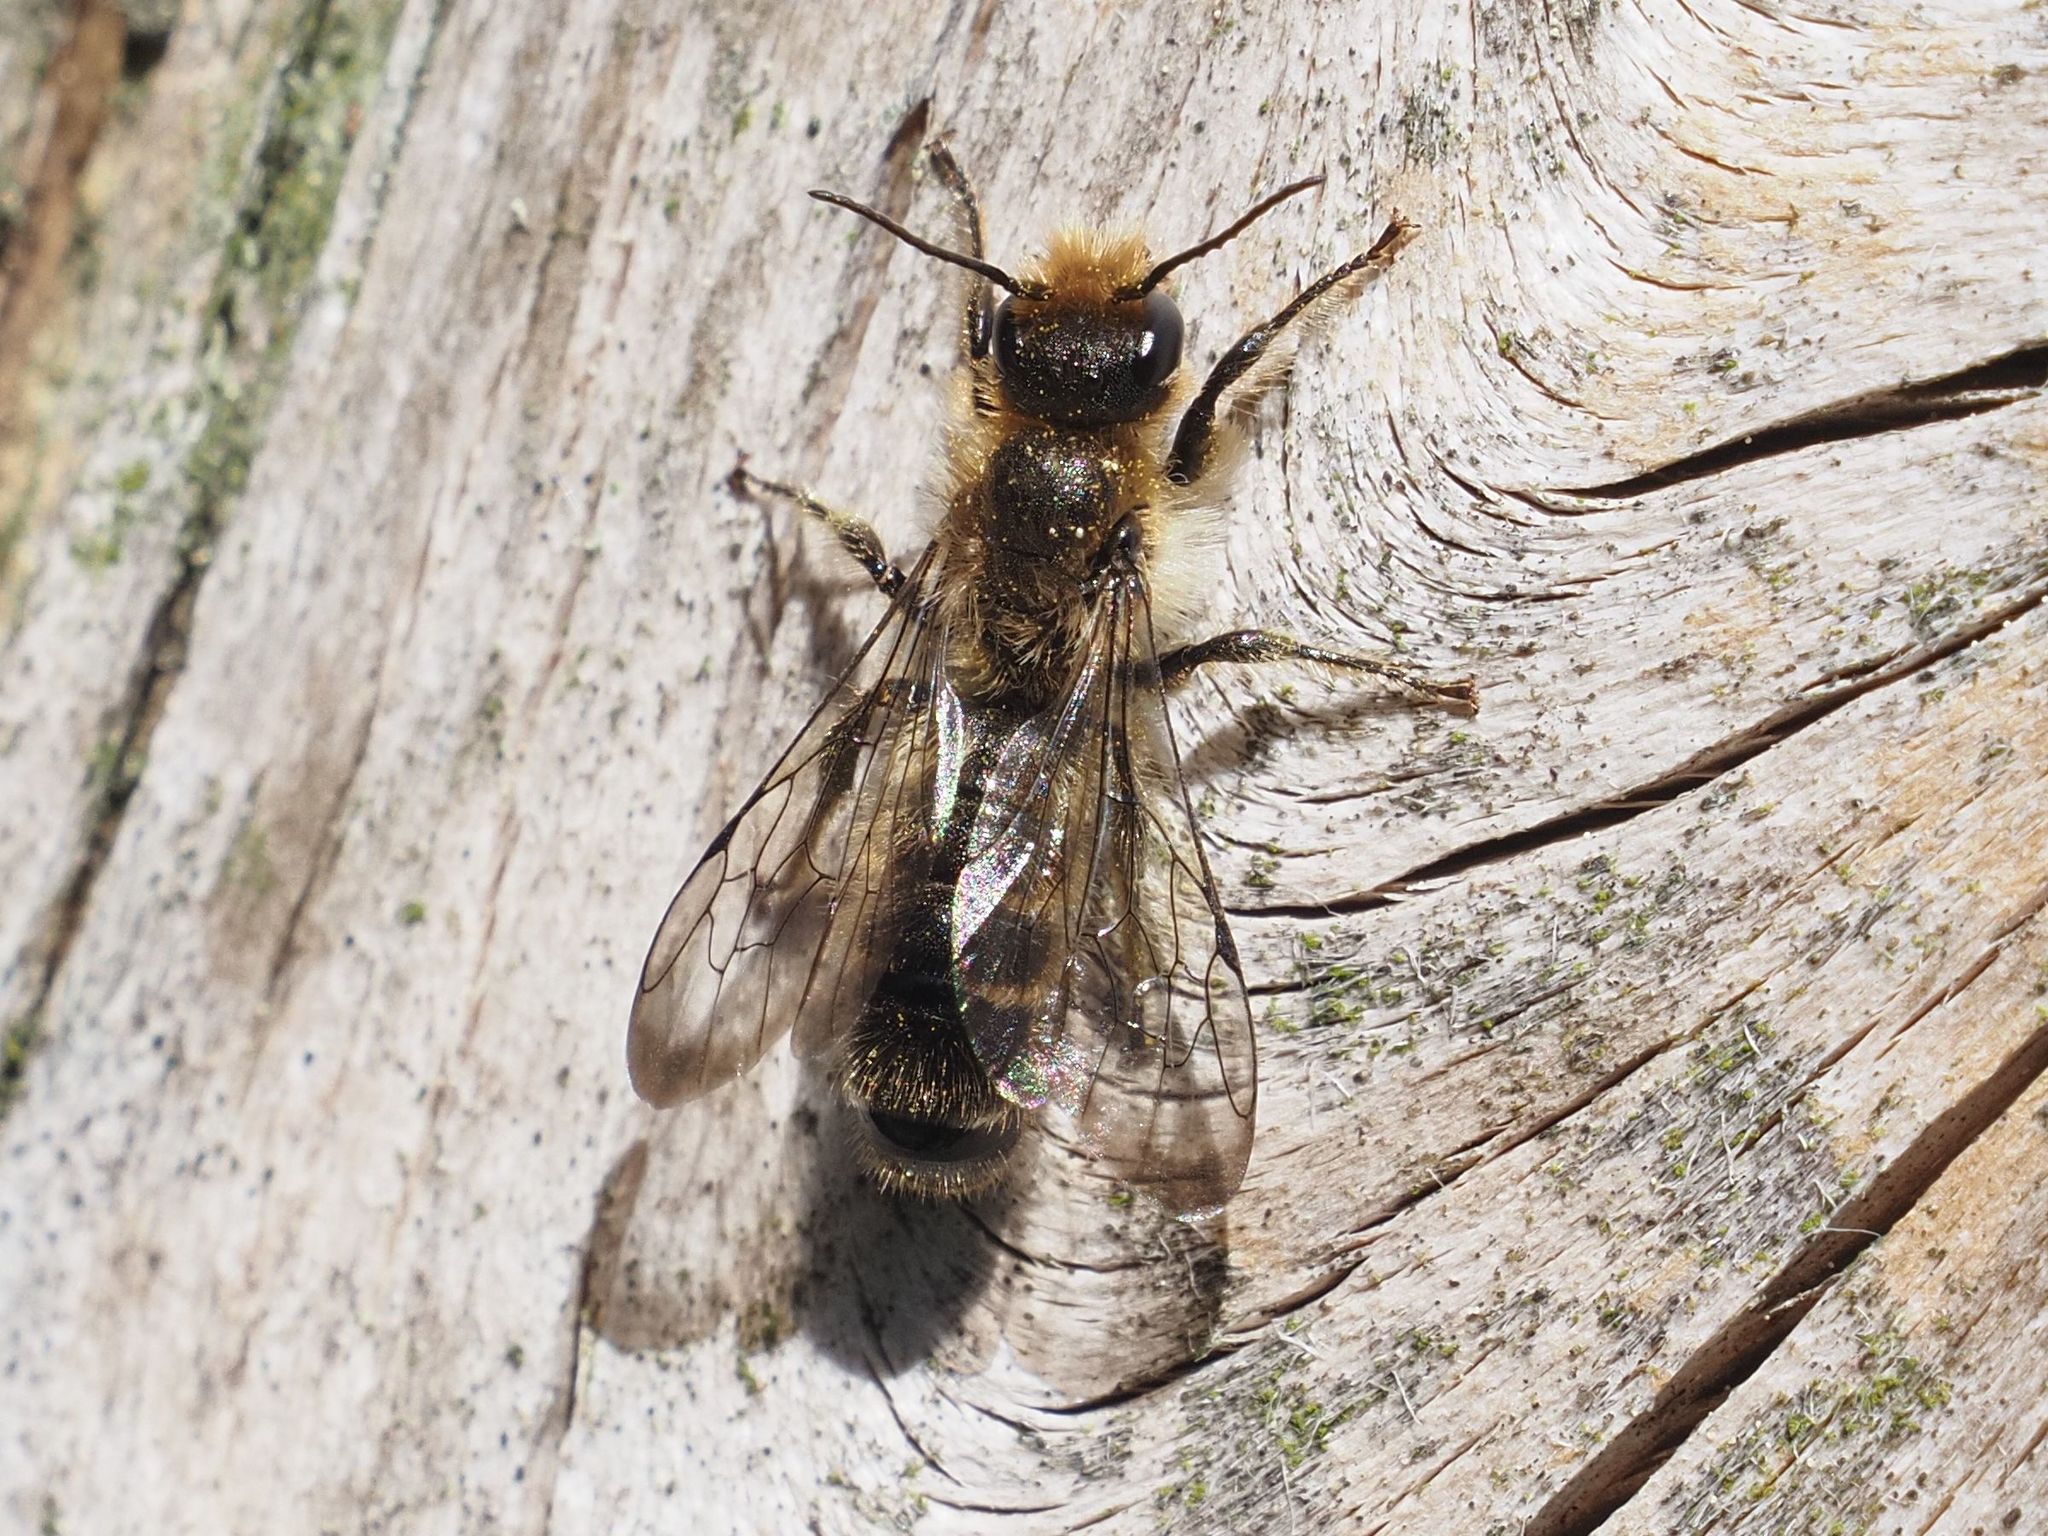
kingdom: Animalia
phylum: Arthropoda
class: Insecta
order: Hymenoptera
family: Megachilidae
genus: Chelostoma
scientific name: Chelostoma florisomne
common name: Sleepy carpenter bee
